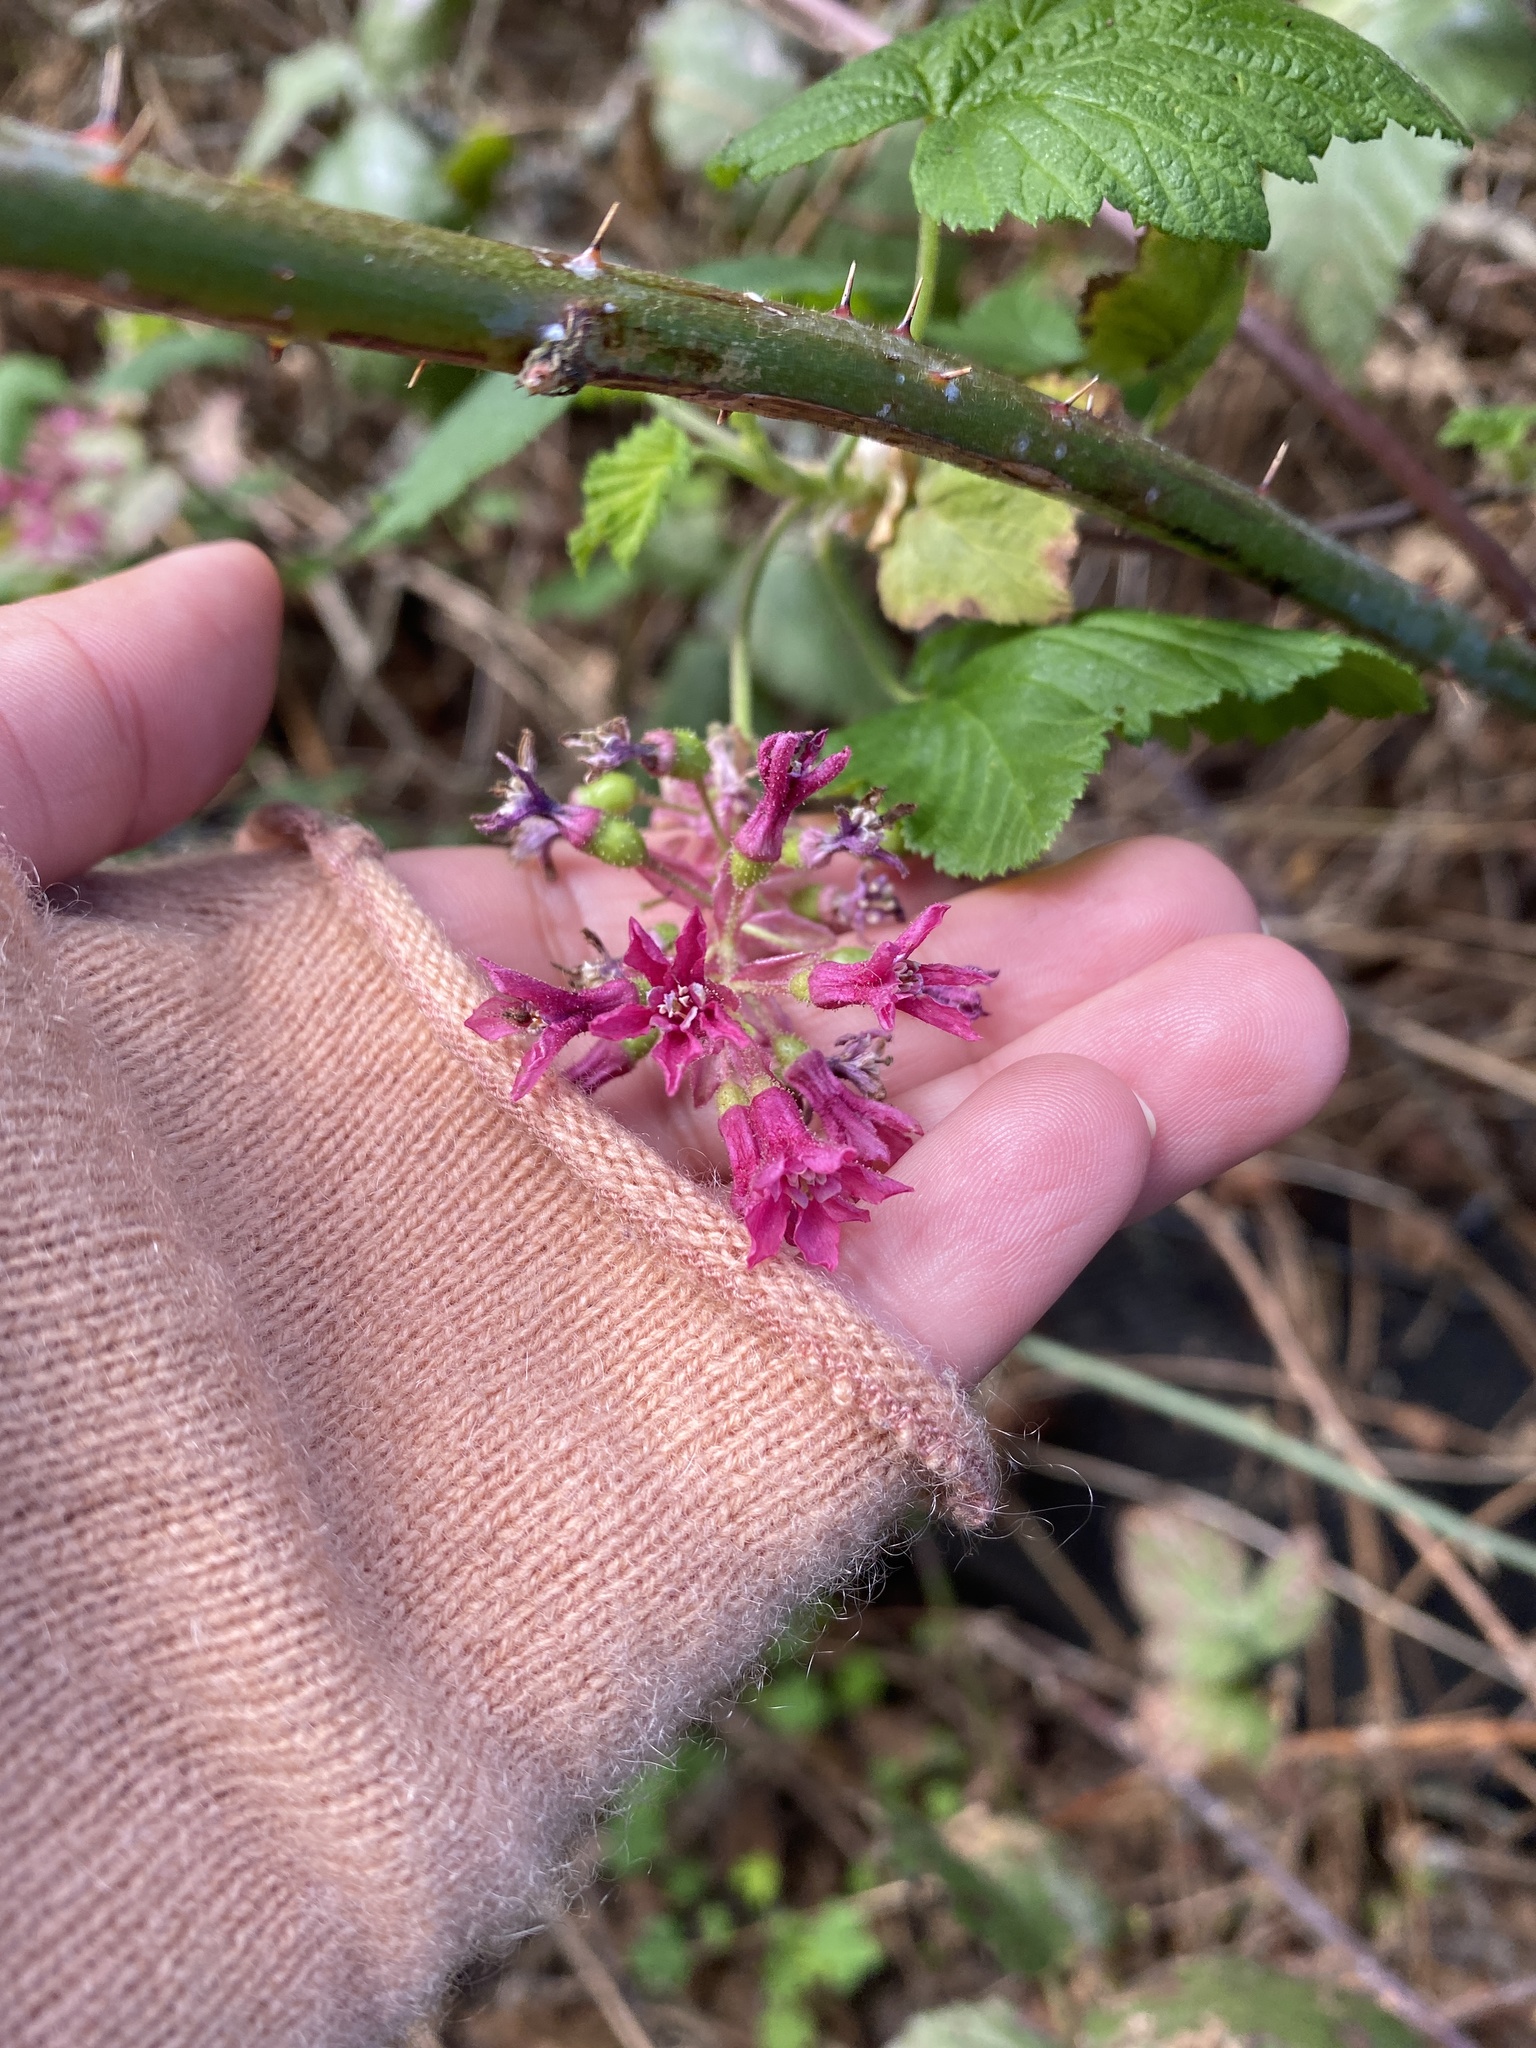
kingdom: Plantae
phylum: Tracheophyta
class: Magnoliopsida
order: Saxifragales
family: Grossulariaceae
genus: Ribes
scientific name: Ribes sanguineum
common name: Flowering currant
